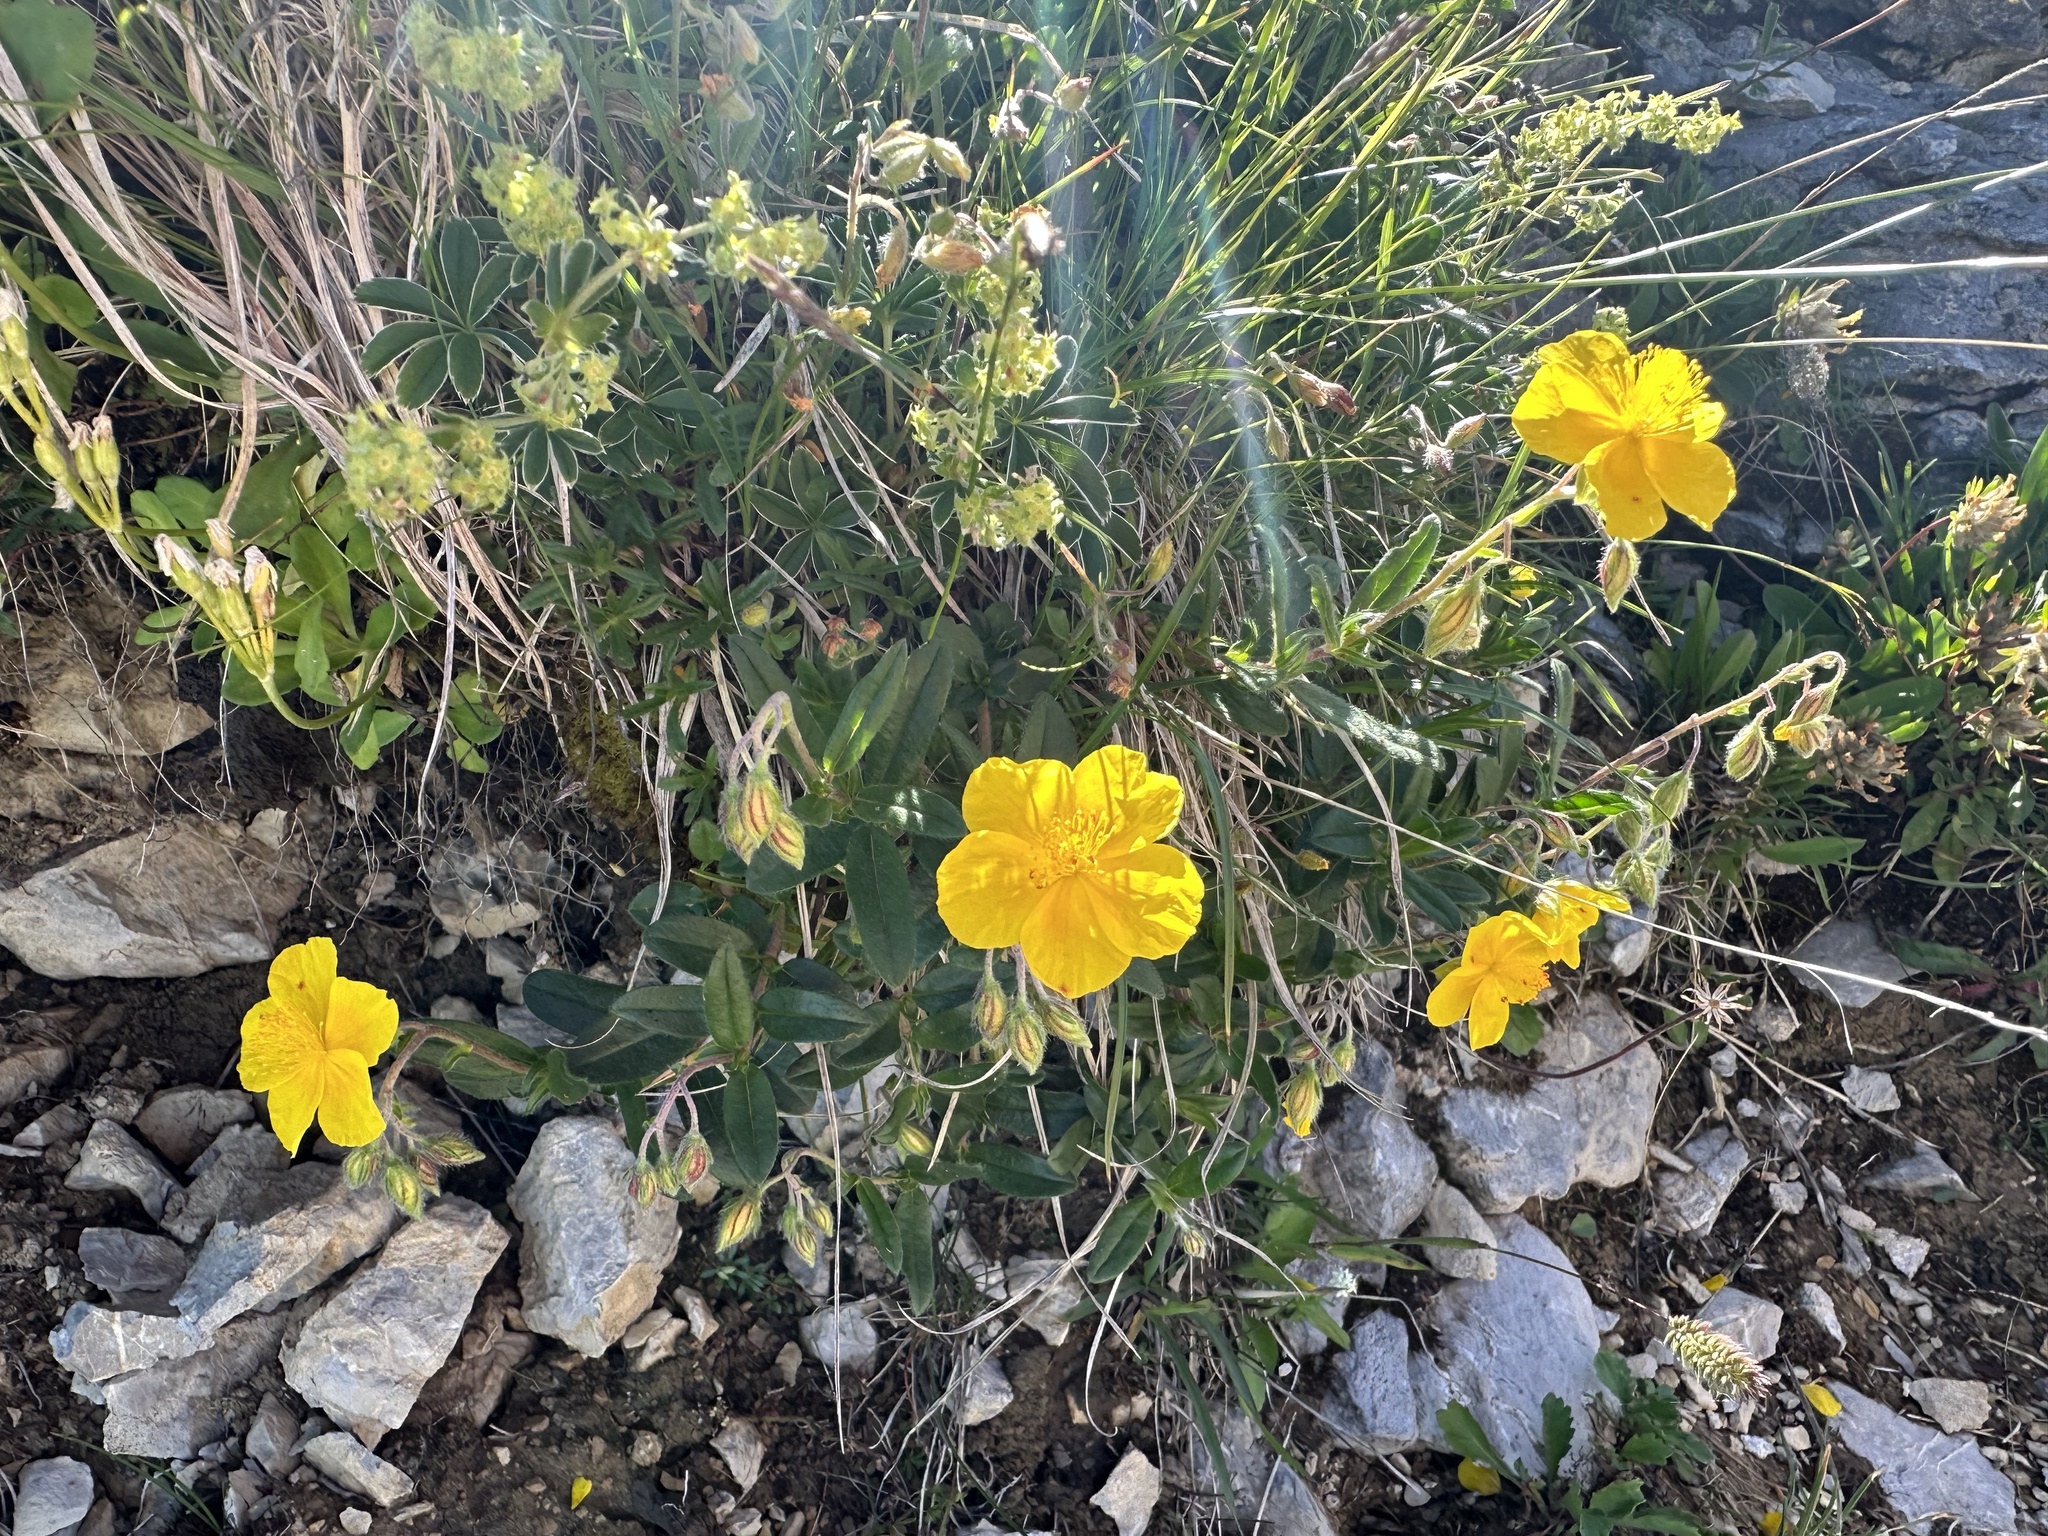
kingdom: Plantae
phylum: Tracheophyta
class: Magnoliopsida
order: Malvales
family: Cistaceae
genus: Helianthemum
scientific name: Helianthemum nummularium
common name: Common rock-rose
